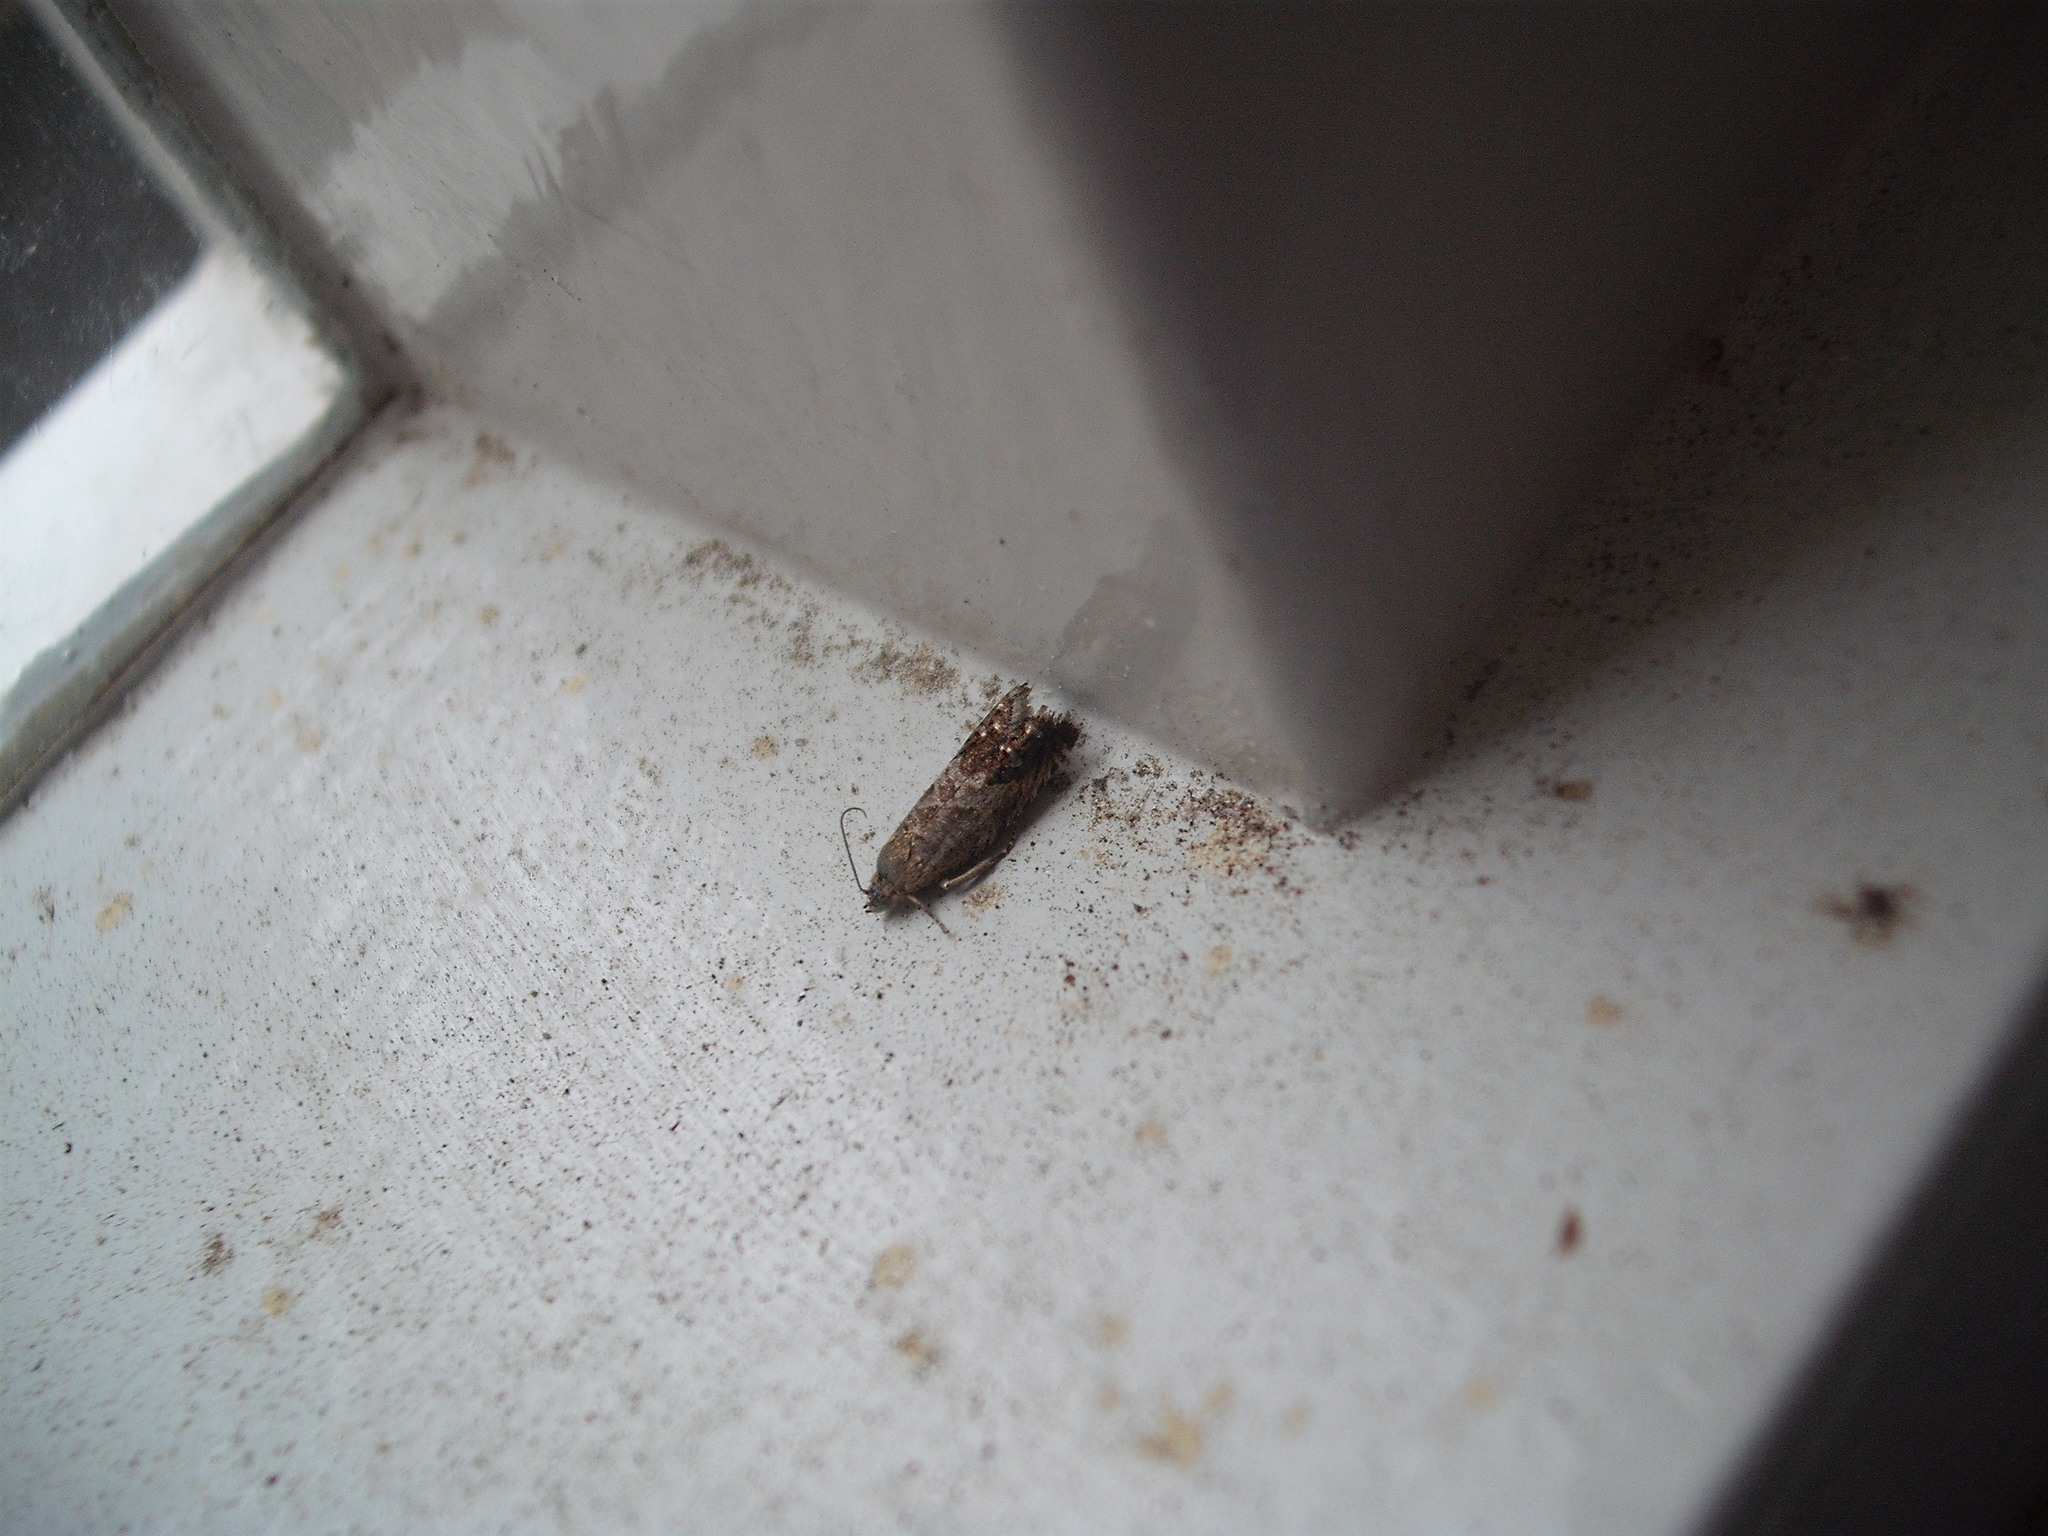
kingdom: Animalia
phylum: Arthropoda
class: Insecta
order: Lepidoptera
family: Tortricidae
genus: Cydia
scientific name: Cydia succedana
